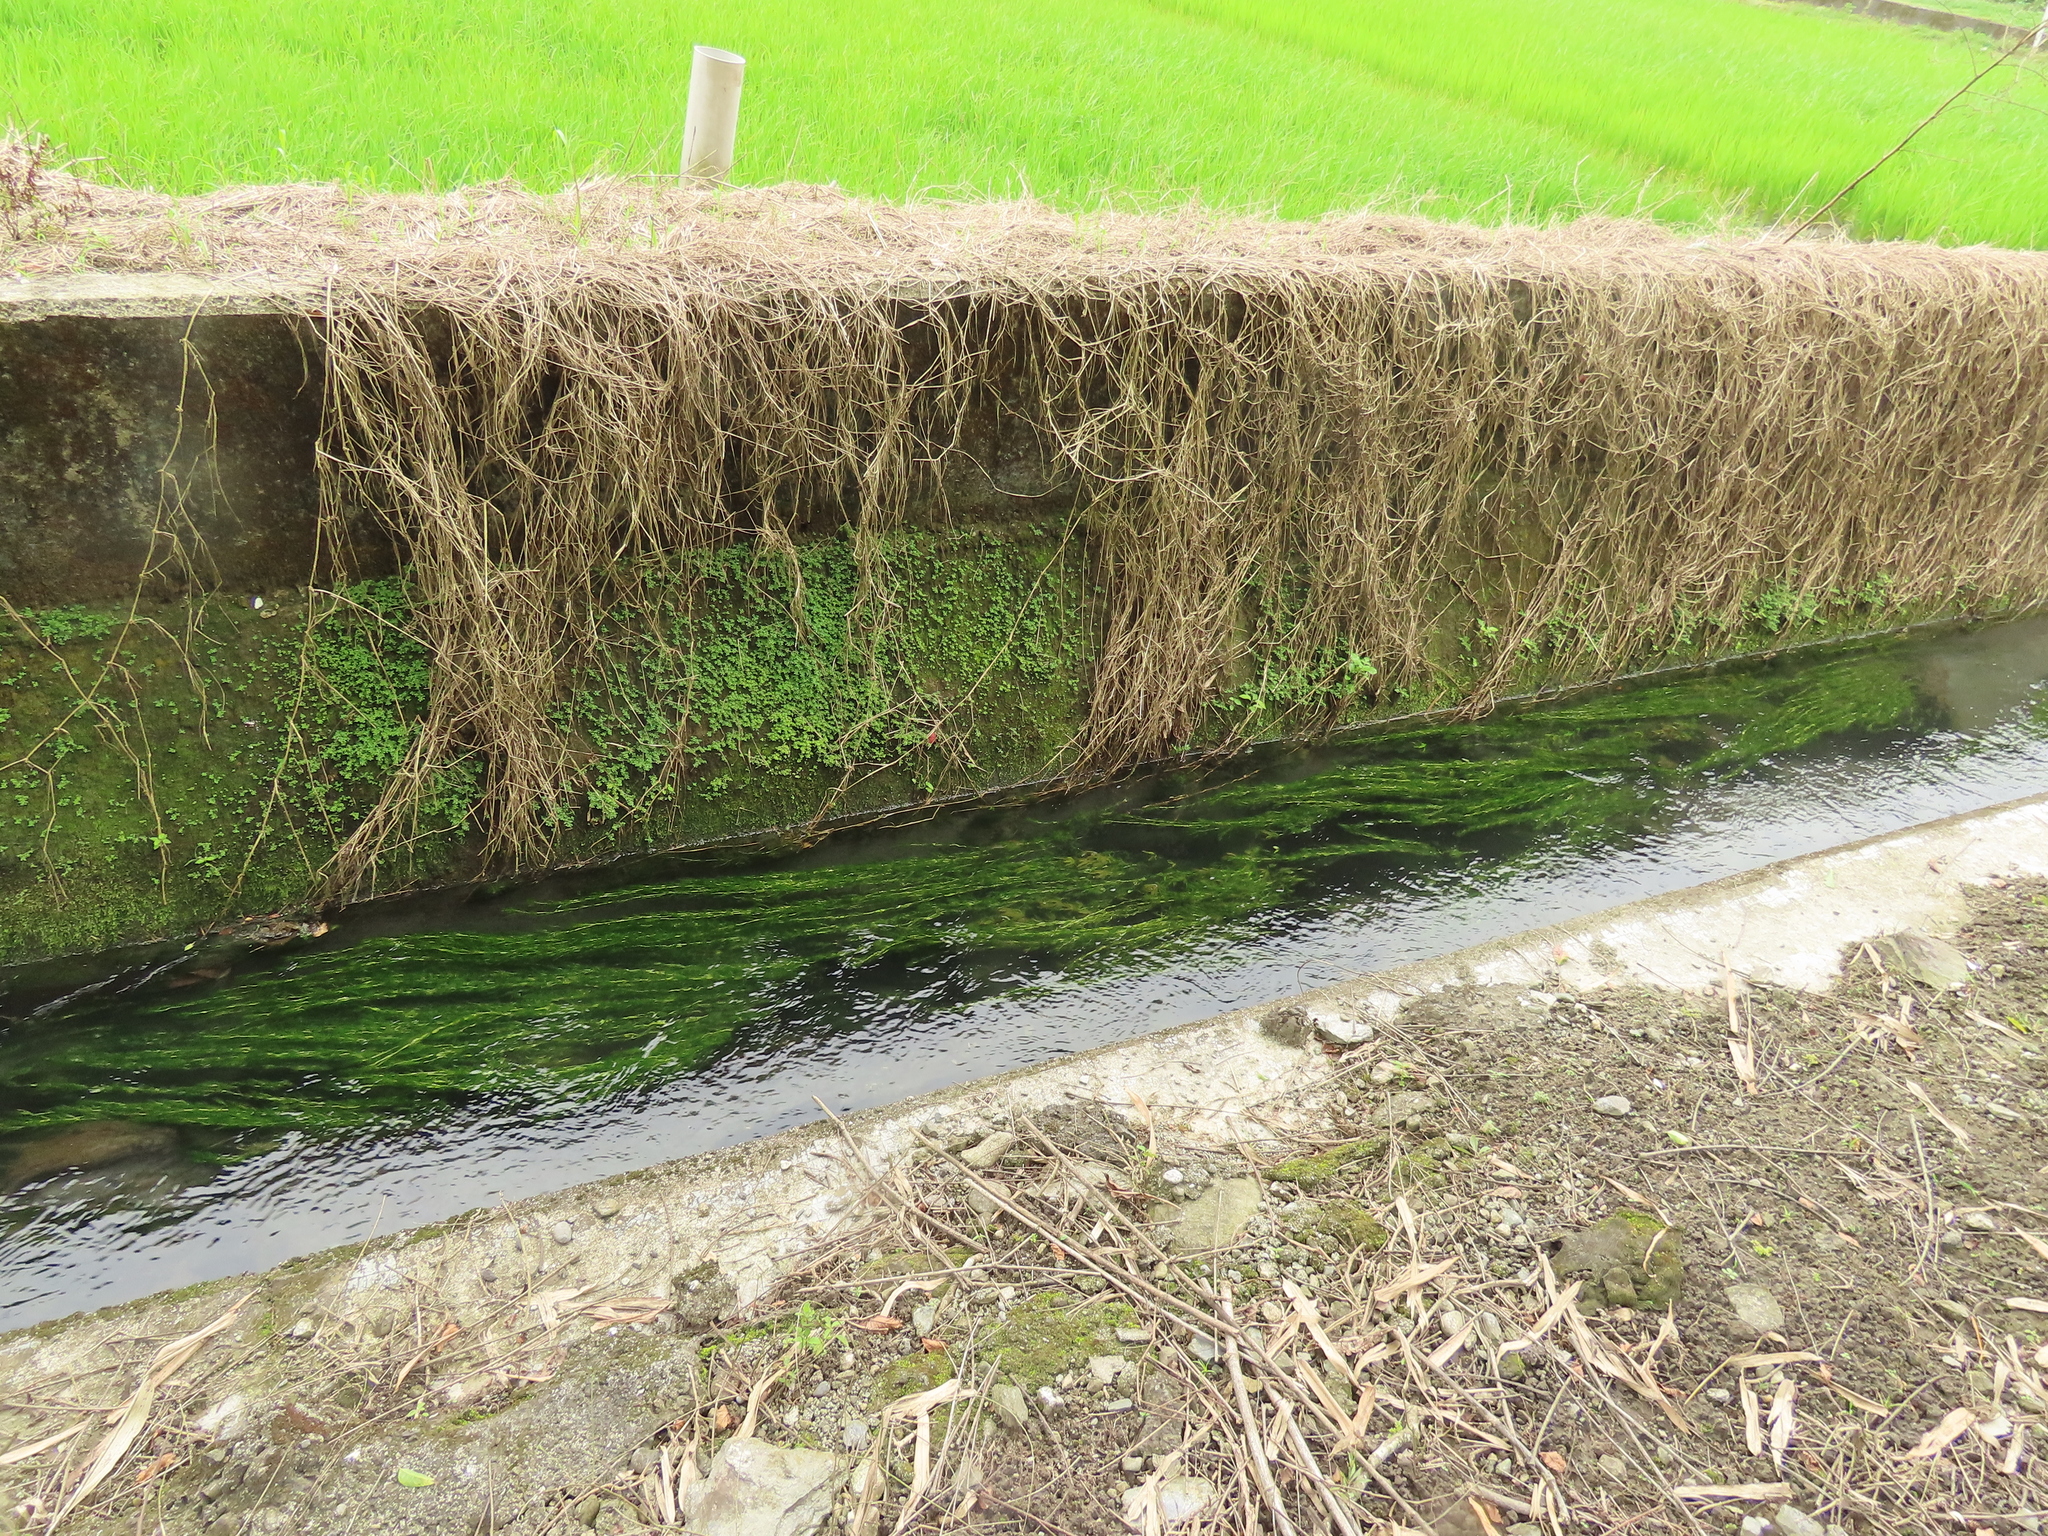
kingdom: Plantae
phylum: Tracheophyta
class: Liliopsida
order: Alismatales
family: Potamogetonaceae
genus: Potamogeton
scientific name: Potamogeton crispus
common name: Curled pondweed
